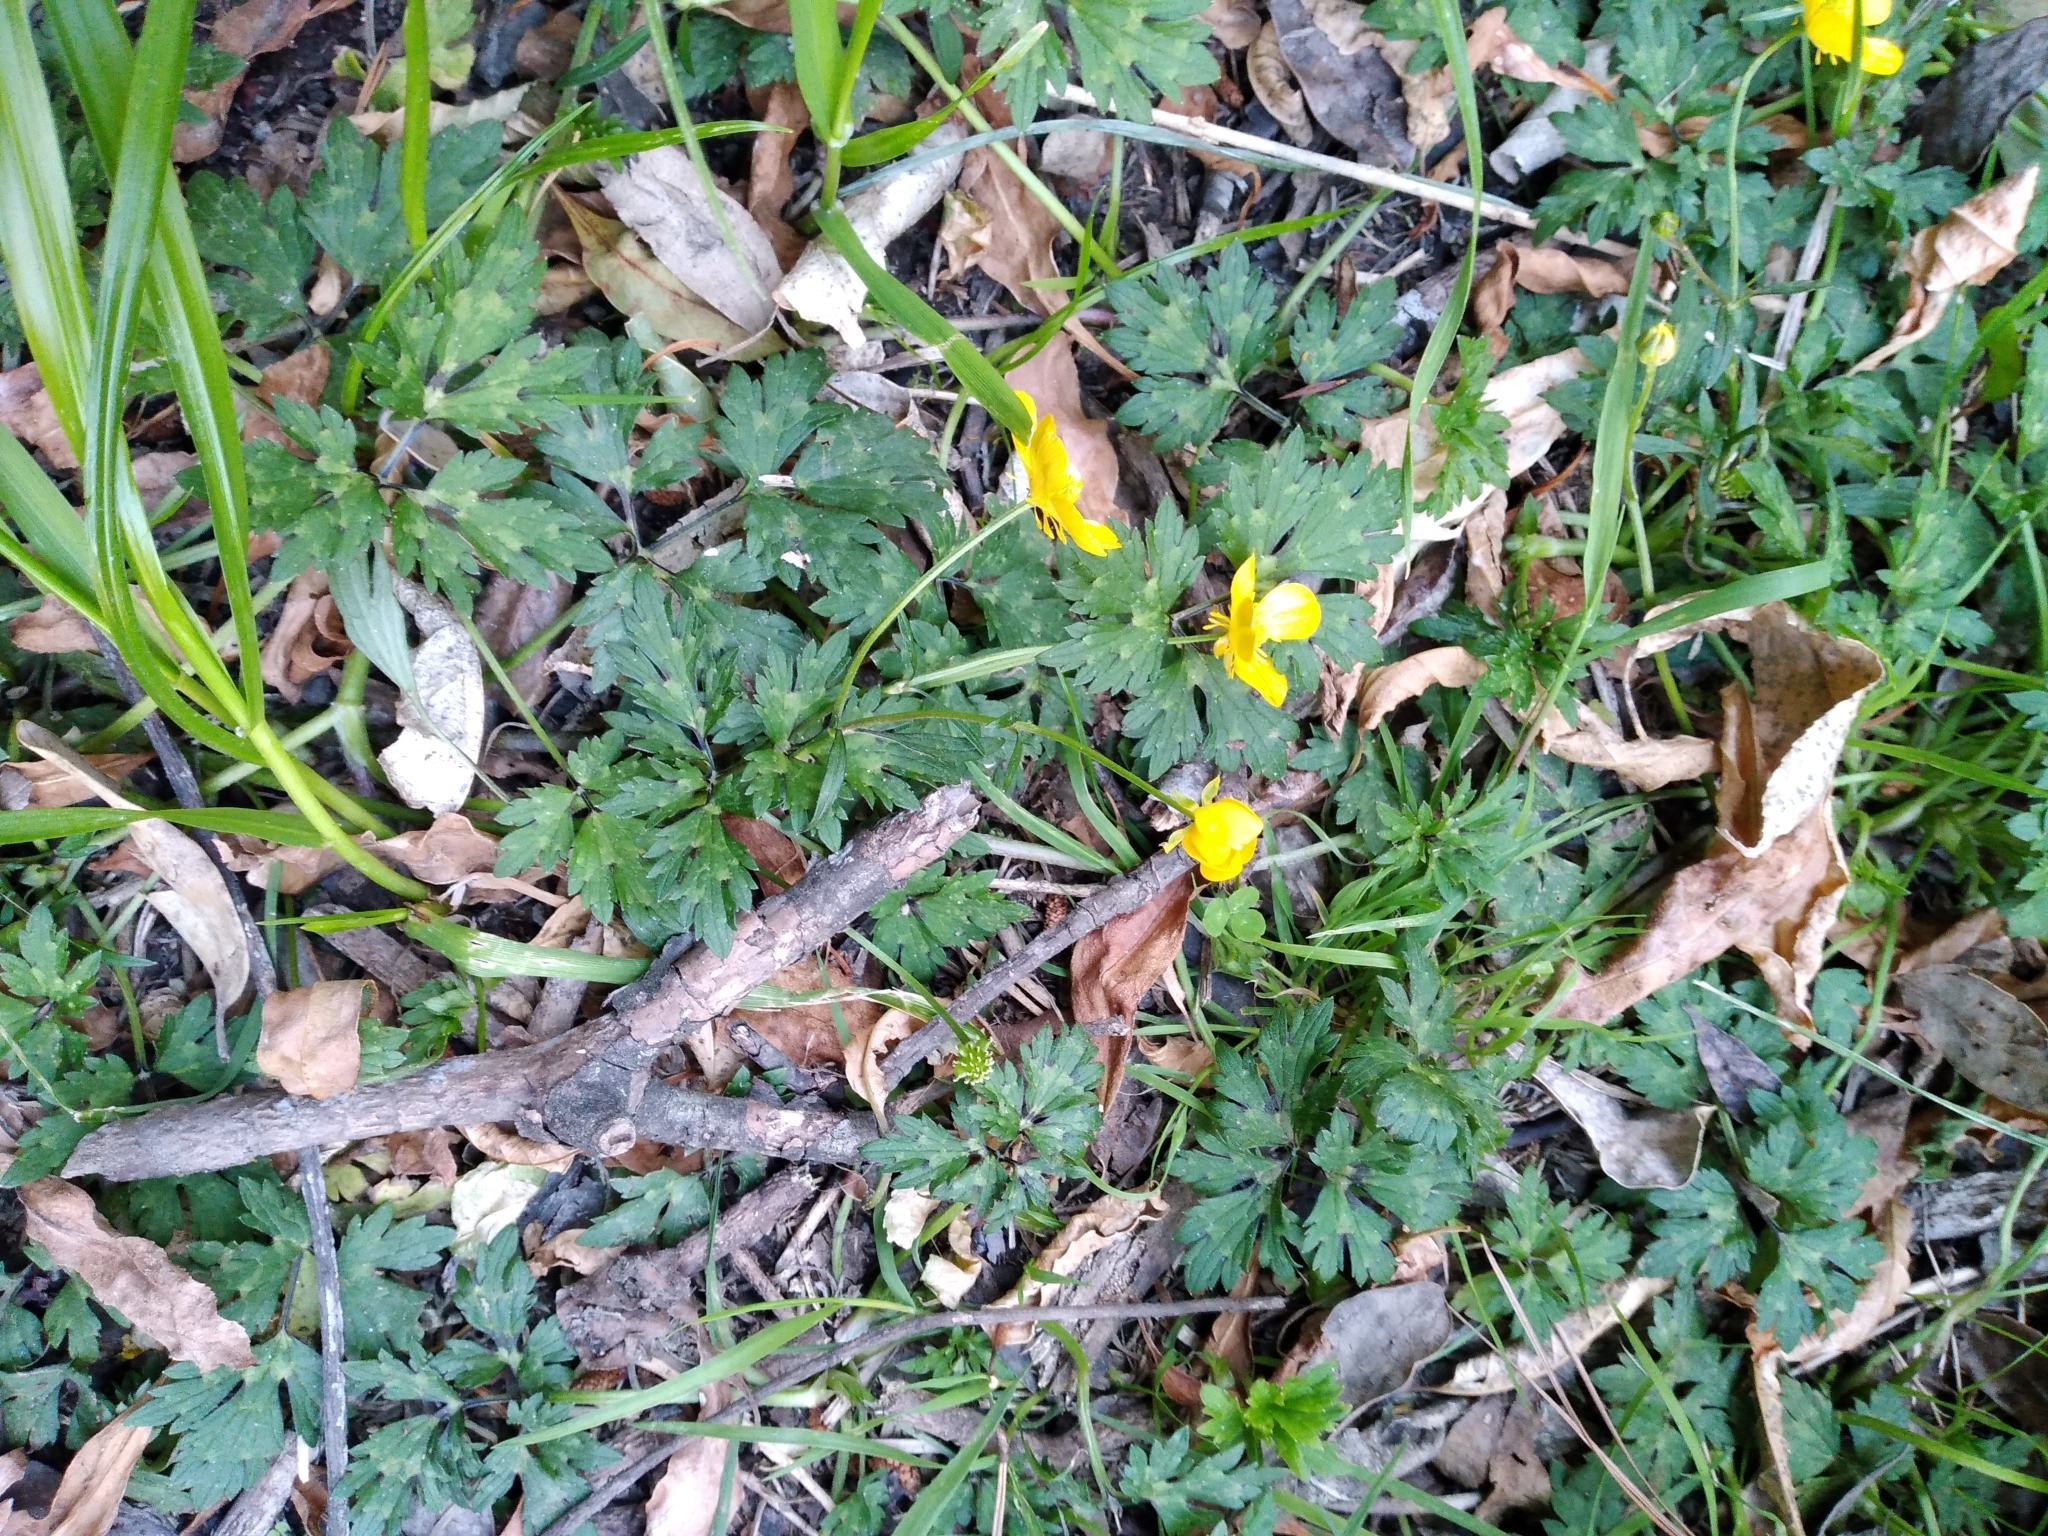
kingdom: Plantae
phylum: Tracheophyta
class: Magnoliopsida
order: Ranunculales
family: Ranunculaceae
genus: Ranunculus
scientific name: Ranunculus repens
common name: Creeping buttercup
